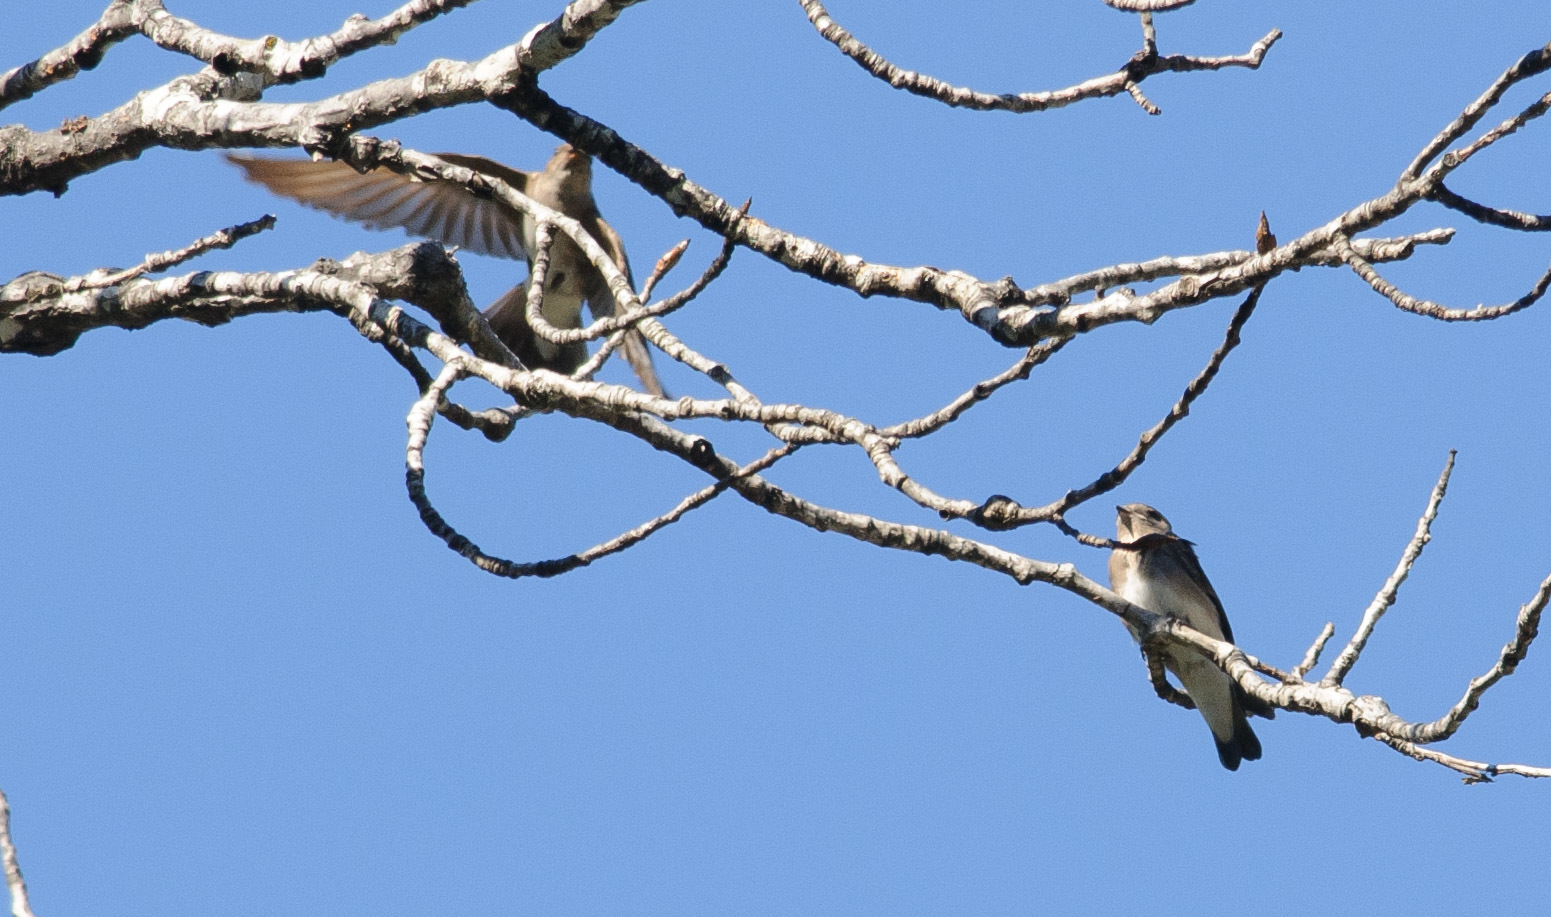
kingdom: Animalia
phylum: Chordata
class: Aves
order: Passeriformes
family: Hirundinidae
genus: Stelgidopteryx
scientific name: Stelgidopteryx serripennis
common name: Northern rough-winged swallow
